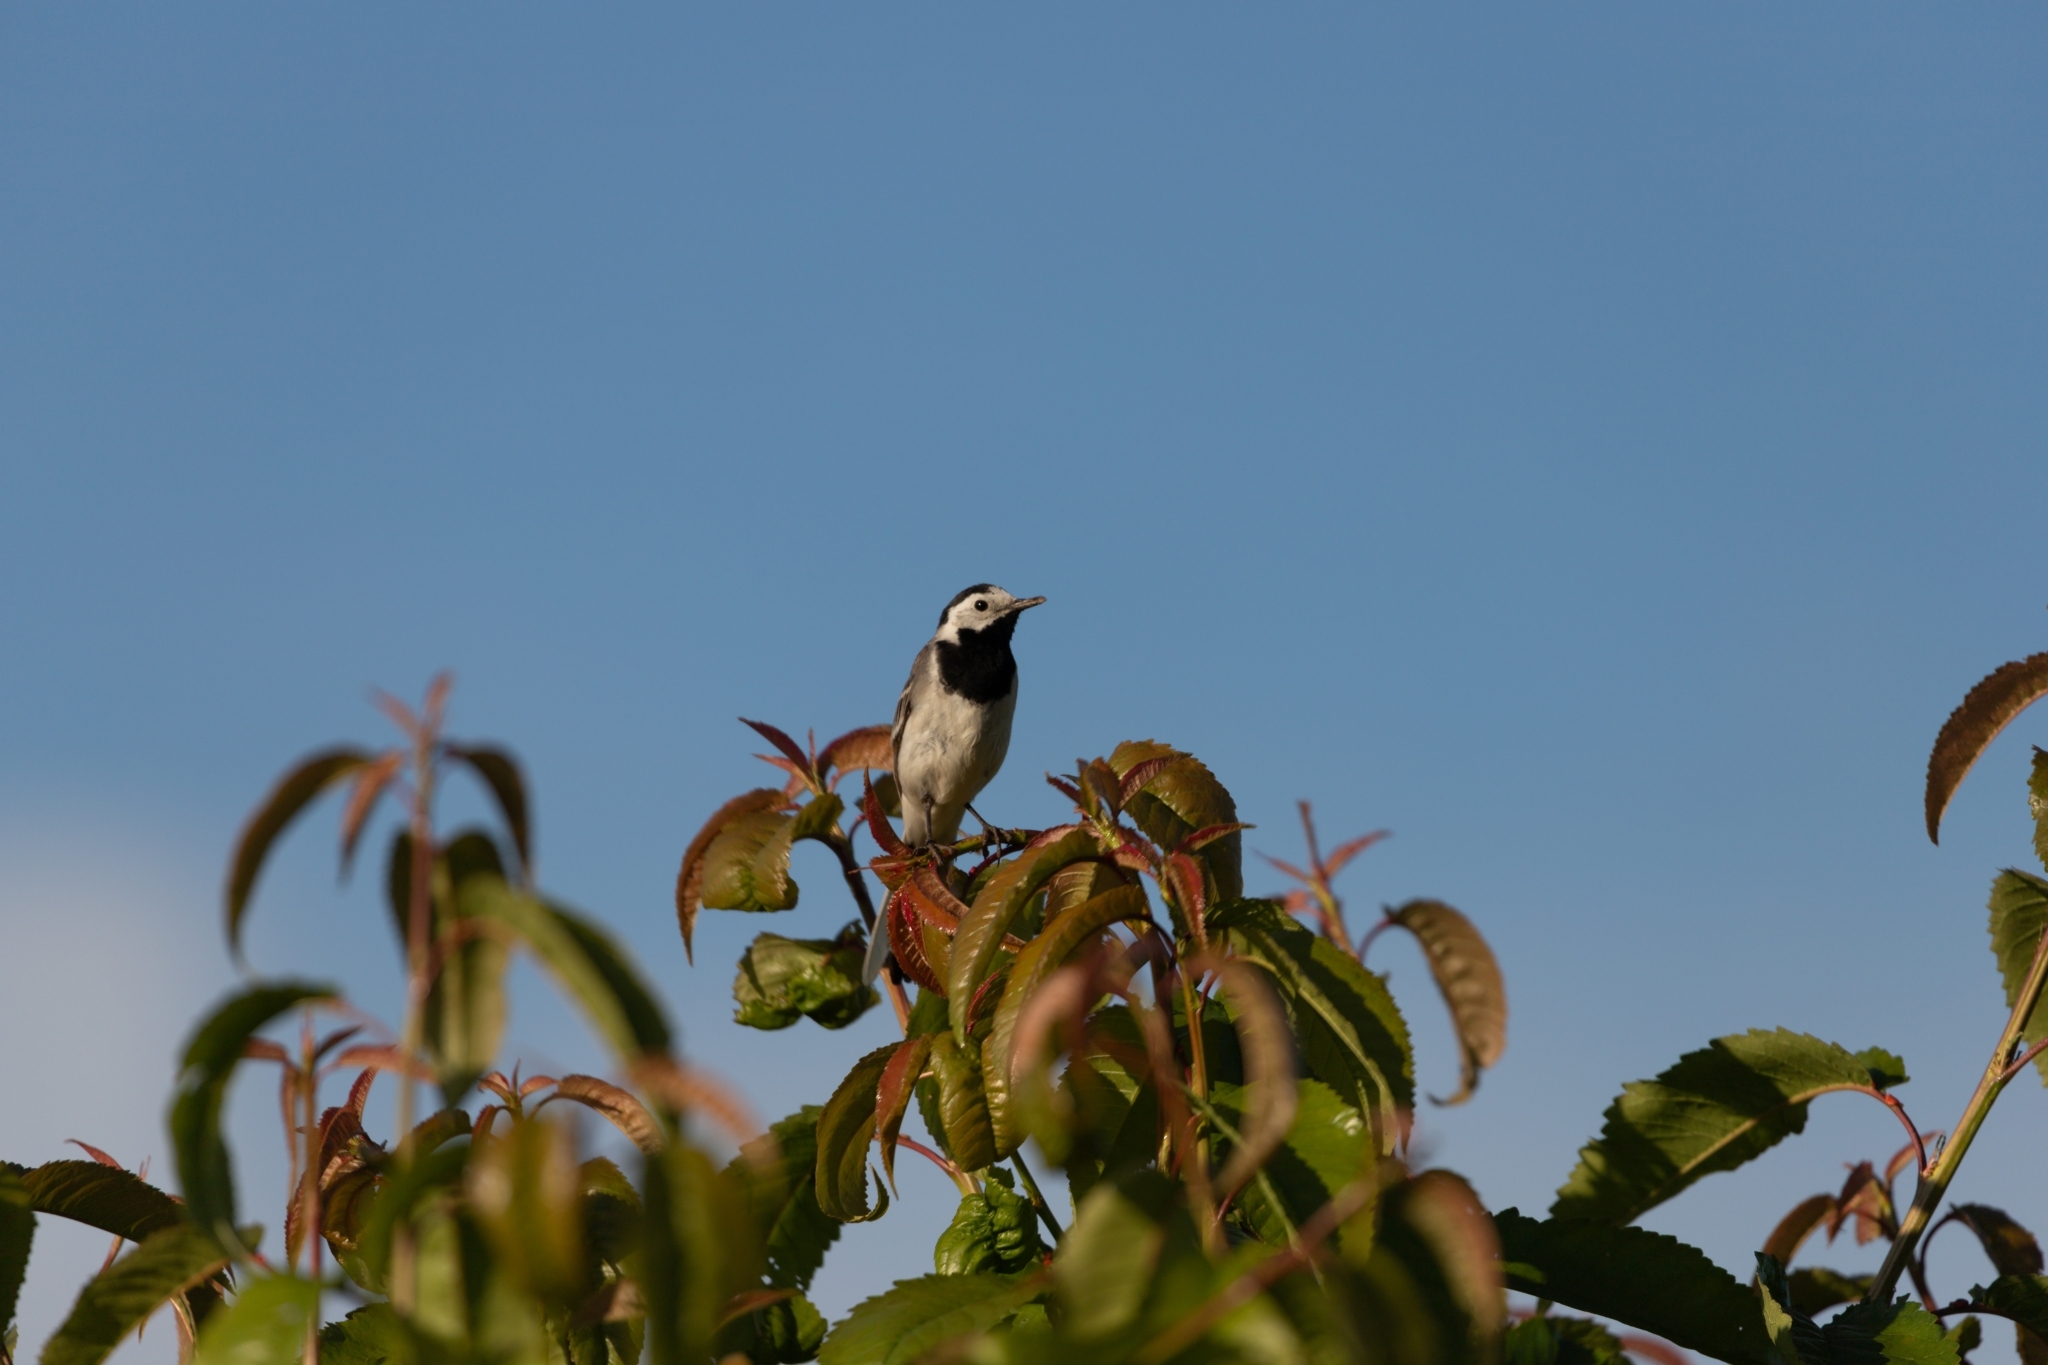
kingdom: Animalia
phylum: Chordata
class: Aves
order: Passeriformes
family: Motacillidae
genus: Motacilla
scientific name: Motacilla alba
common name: White wagtail
